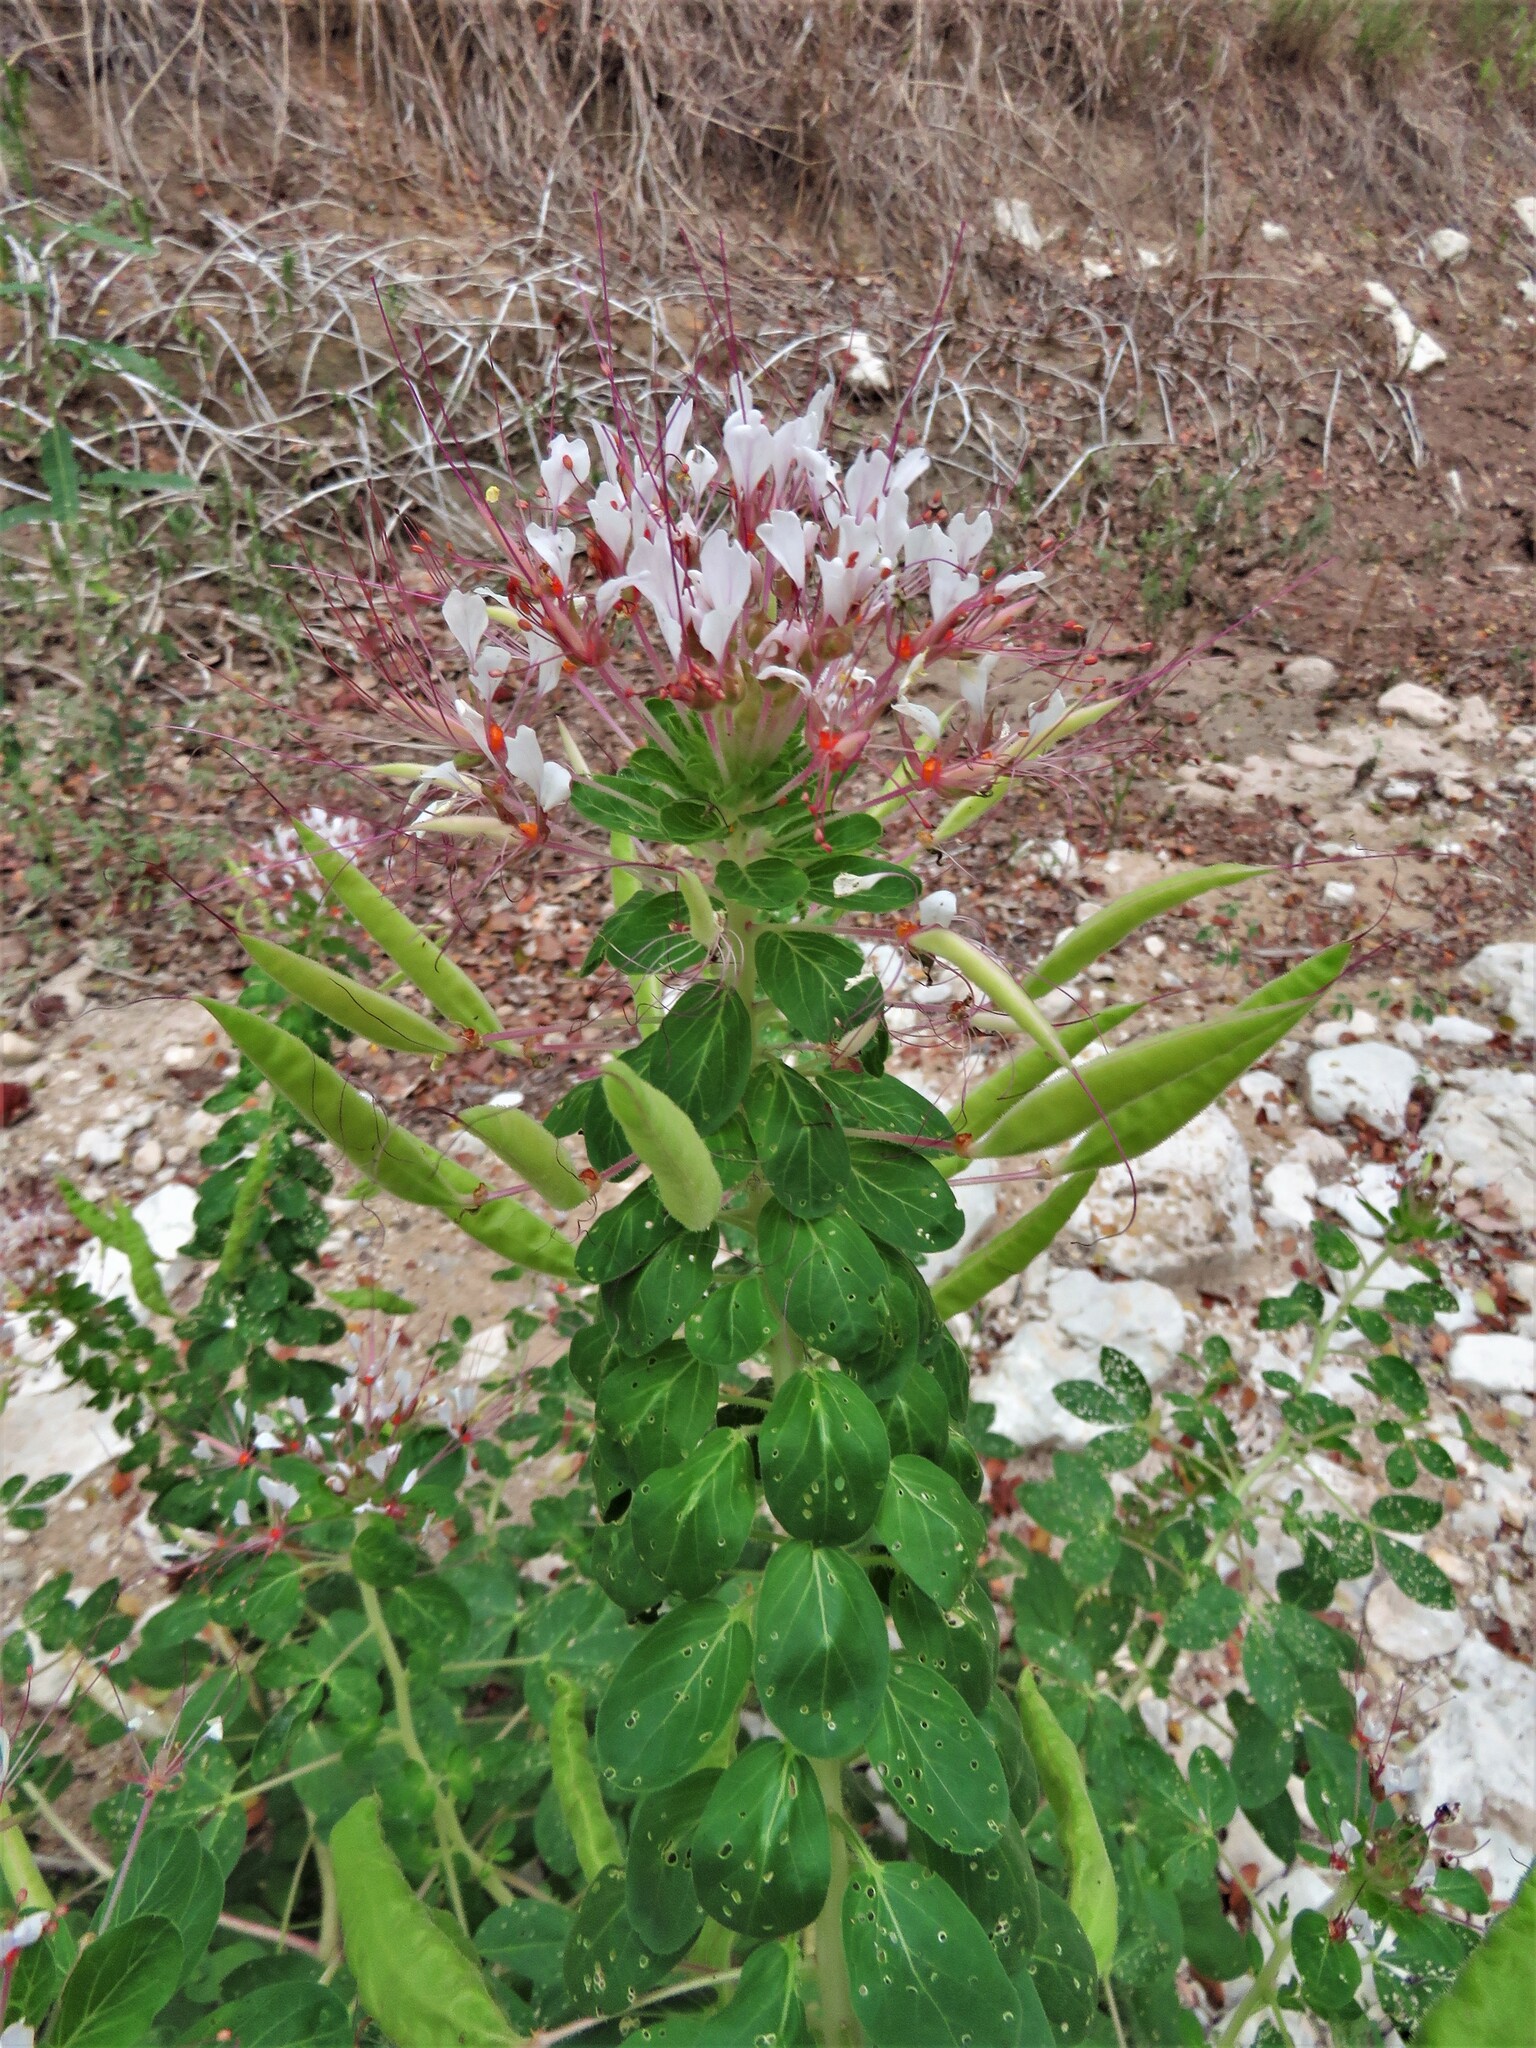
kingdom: Plantae
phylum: Tracheophyta
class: Magnoliopsida
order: Brassicales
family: Cleomaceae
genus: Polanisia
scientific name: Polanisia dodecandra
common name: Clammyweed
